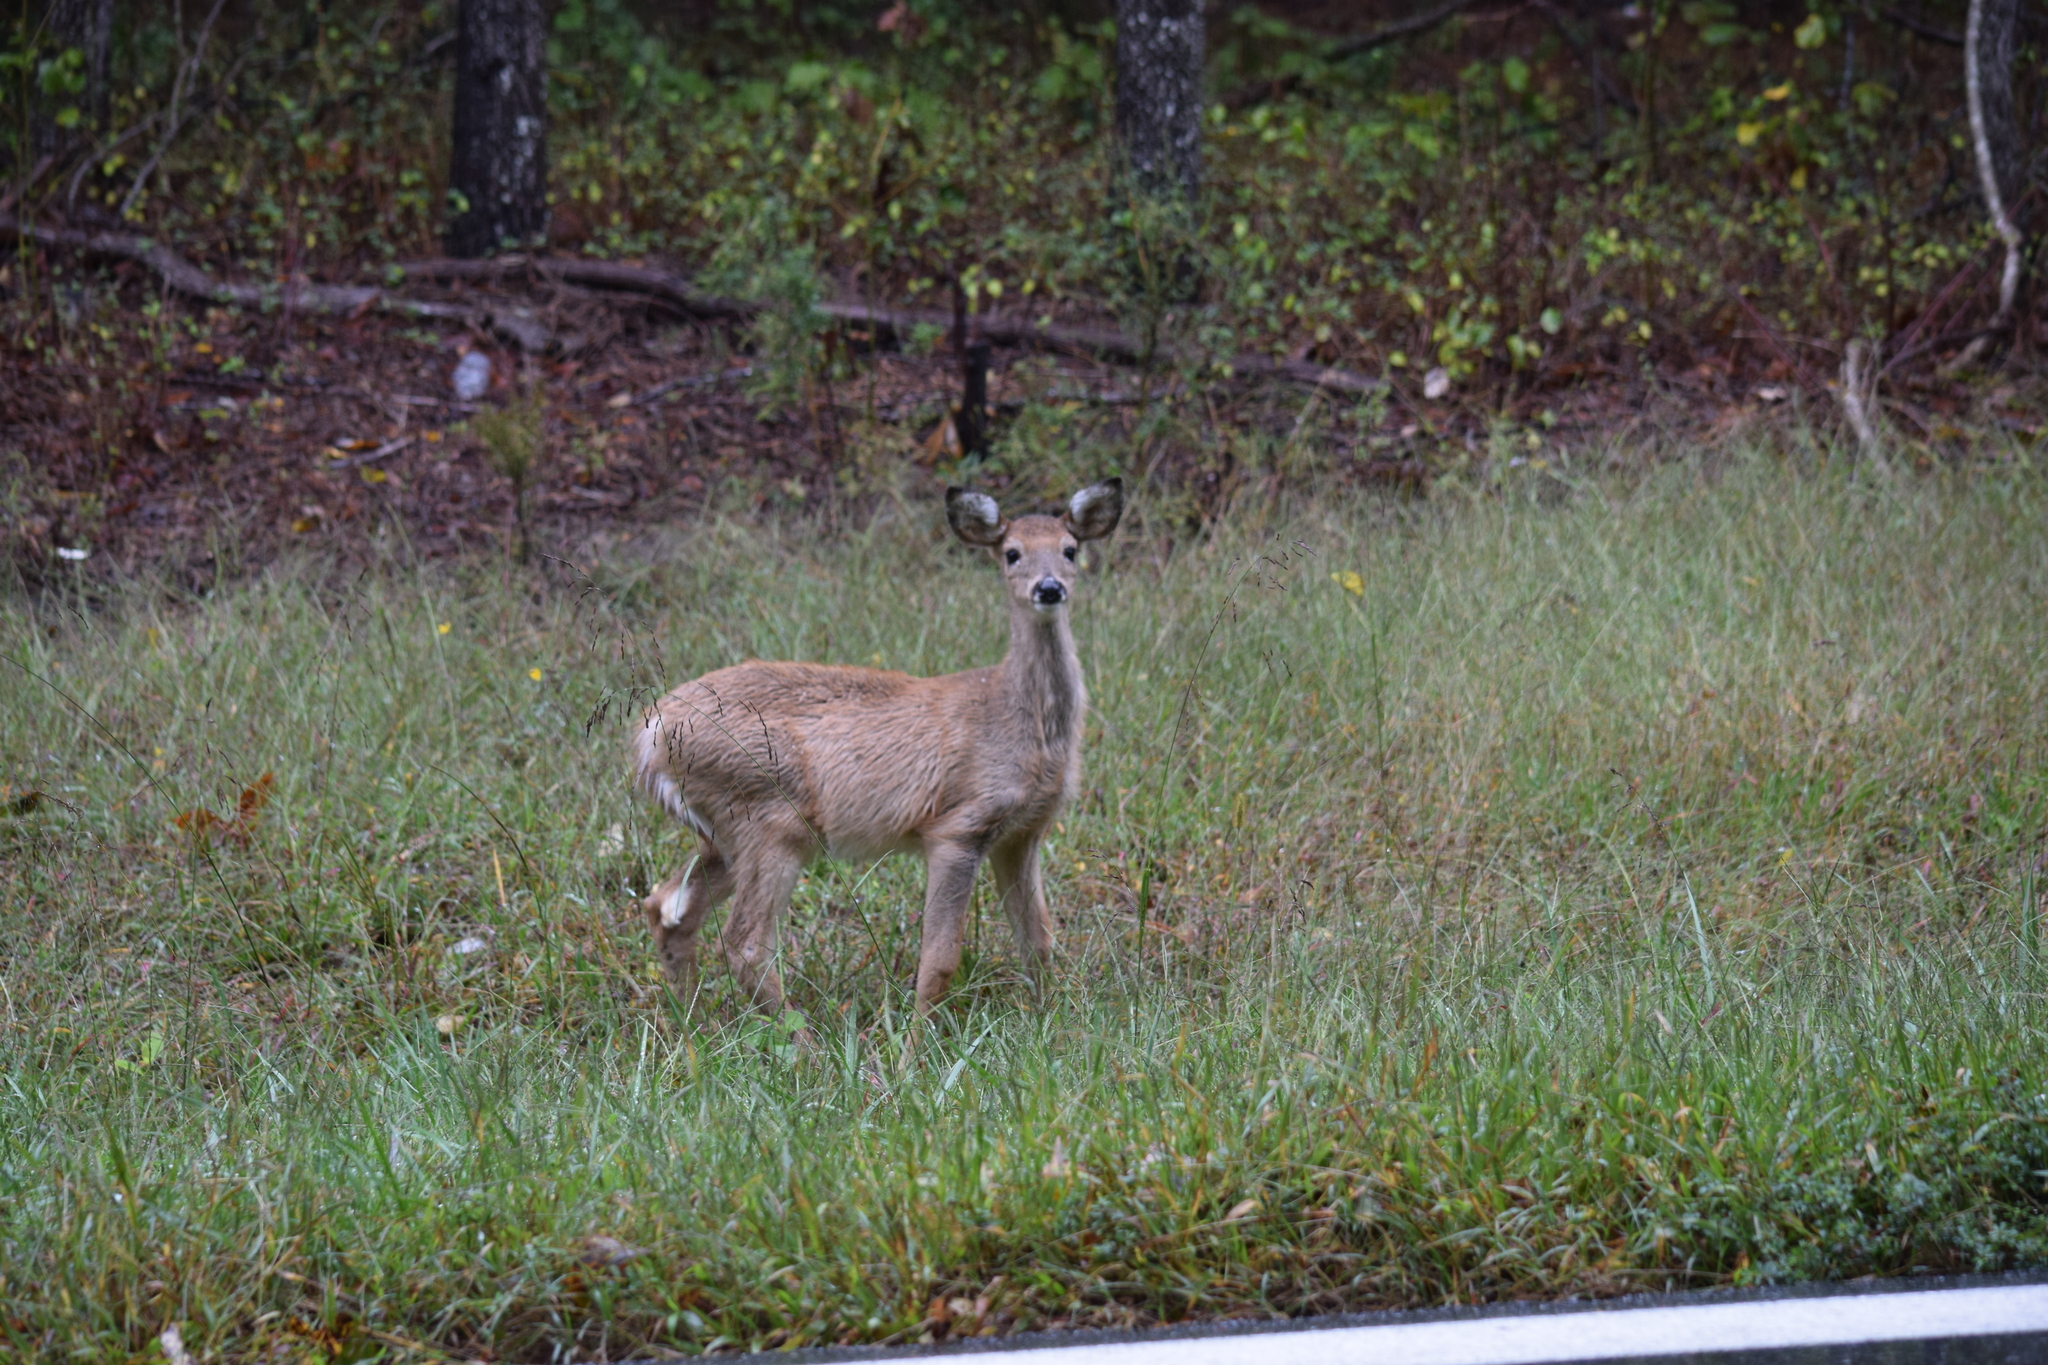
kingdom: Animalia
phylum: Chordata
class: Mammalia
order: Artiodactyla
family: Cervidae
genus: Odocoileus
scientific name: Odocoileus virginianus
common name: White-tailed deer
